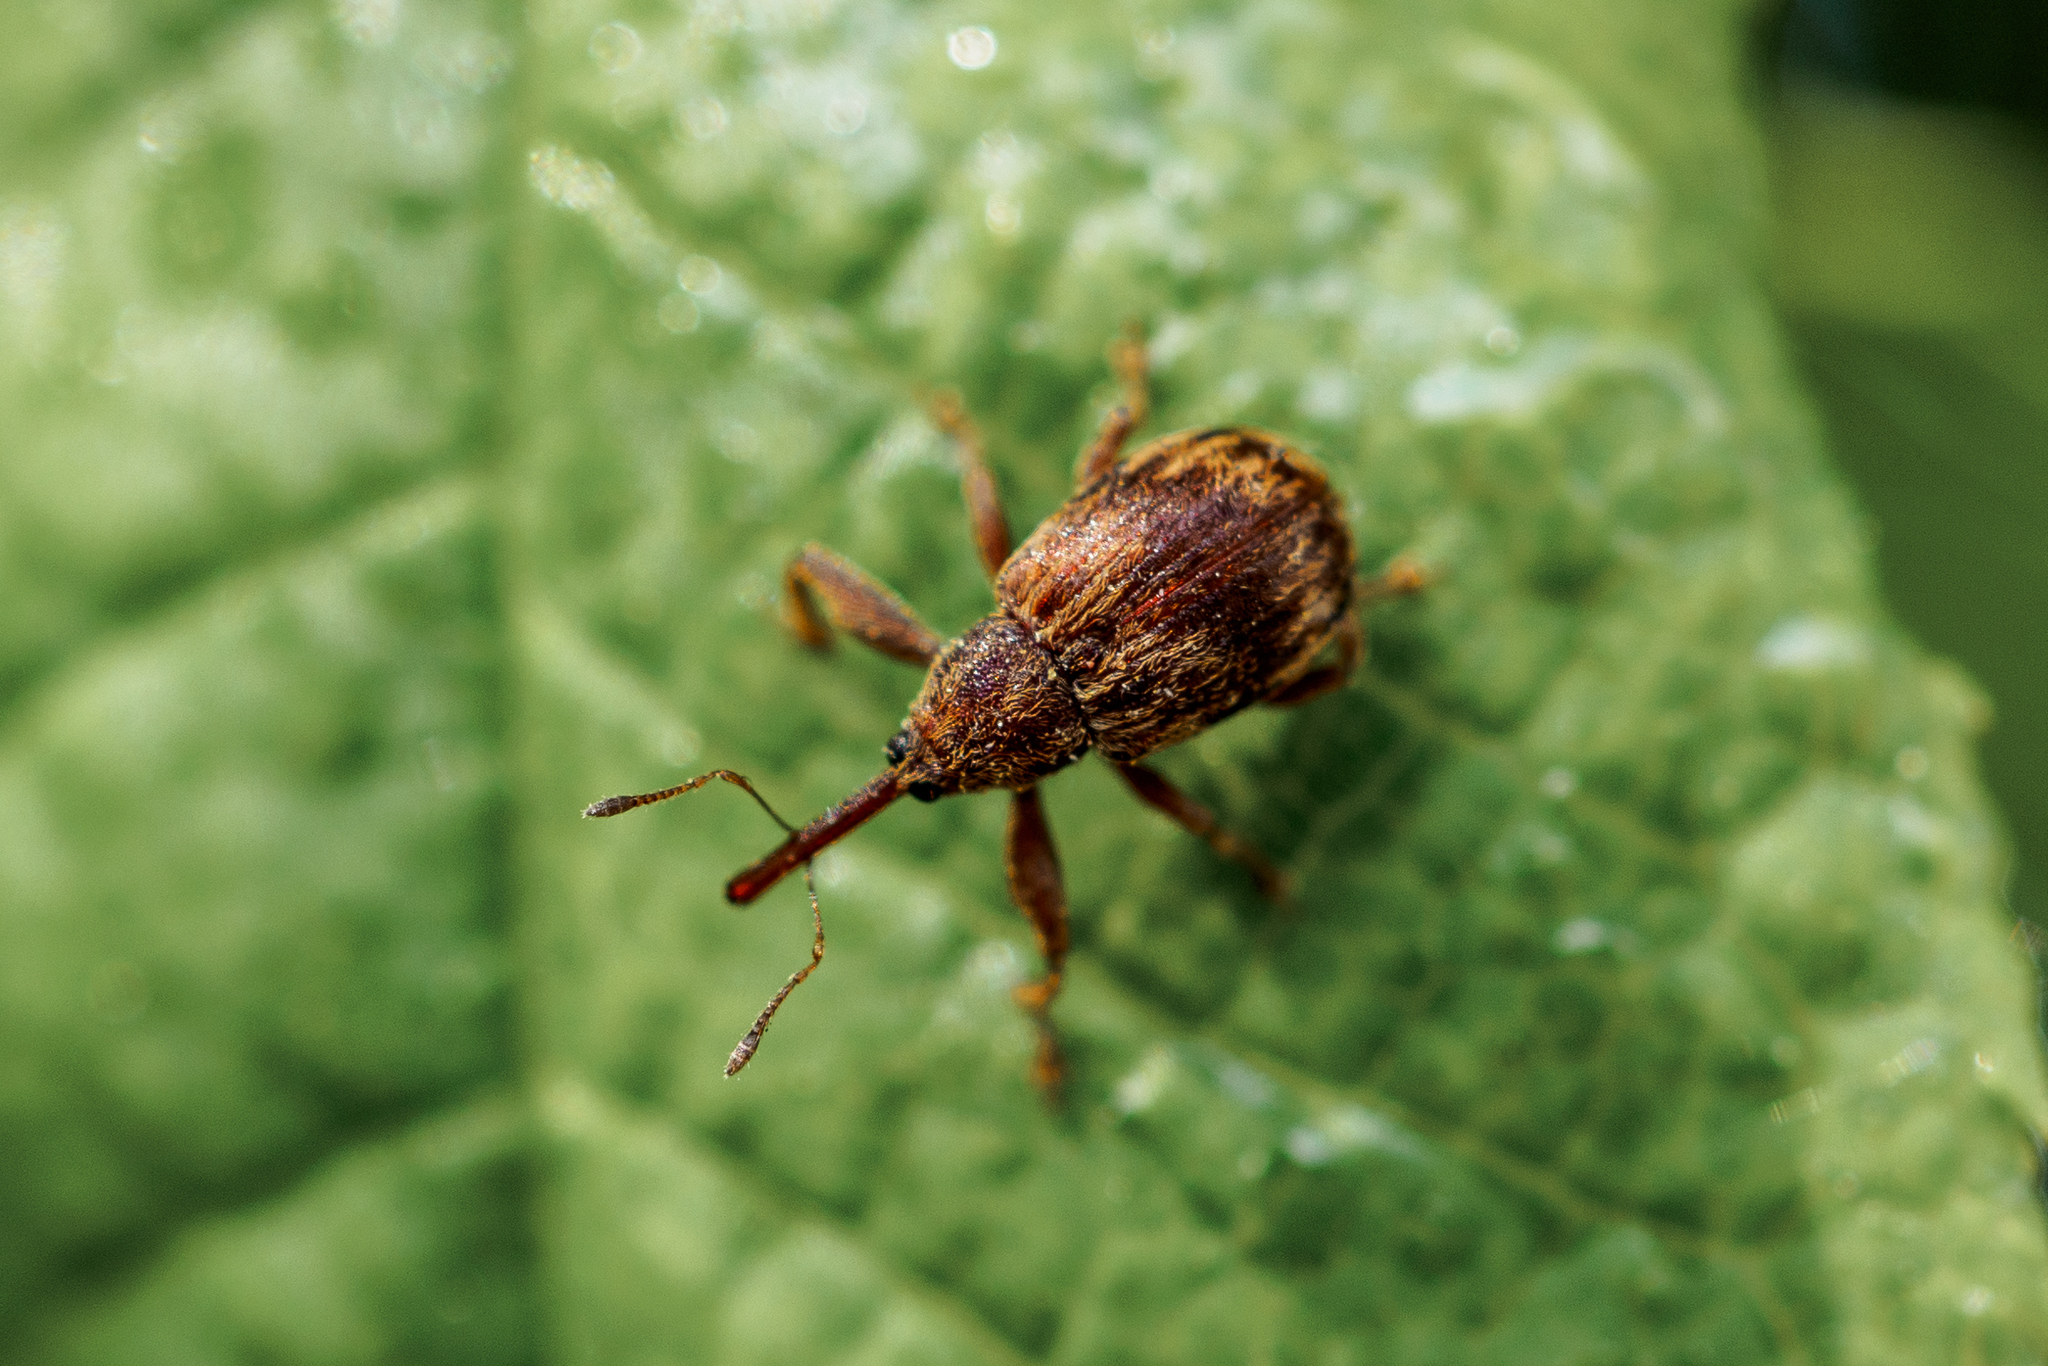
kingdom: Animalia
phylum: Arthropoda
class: Insecta
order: Coleoptera
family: Curculionidae
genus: Anthonomus
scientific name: Anthonomus rectirostris
